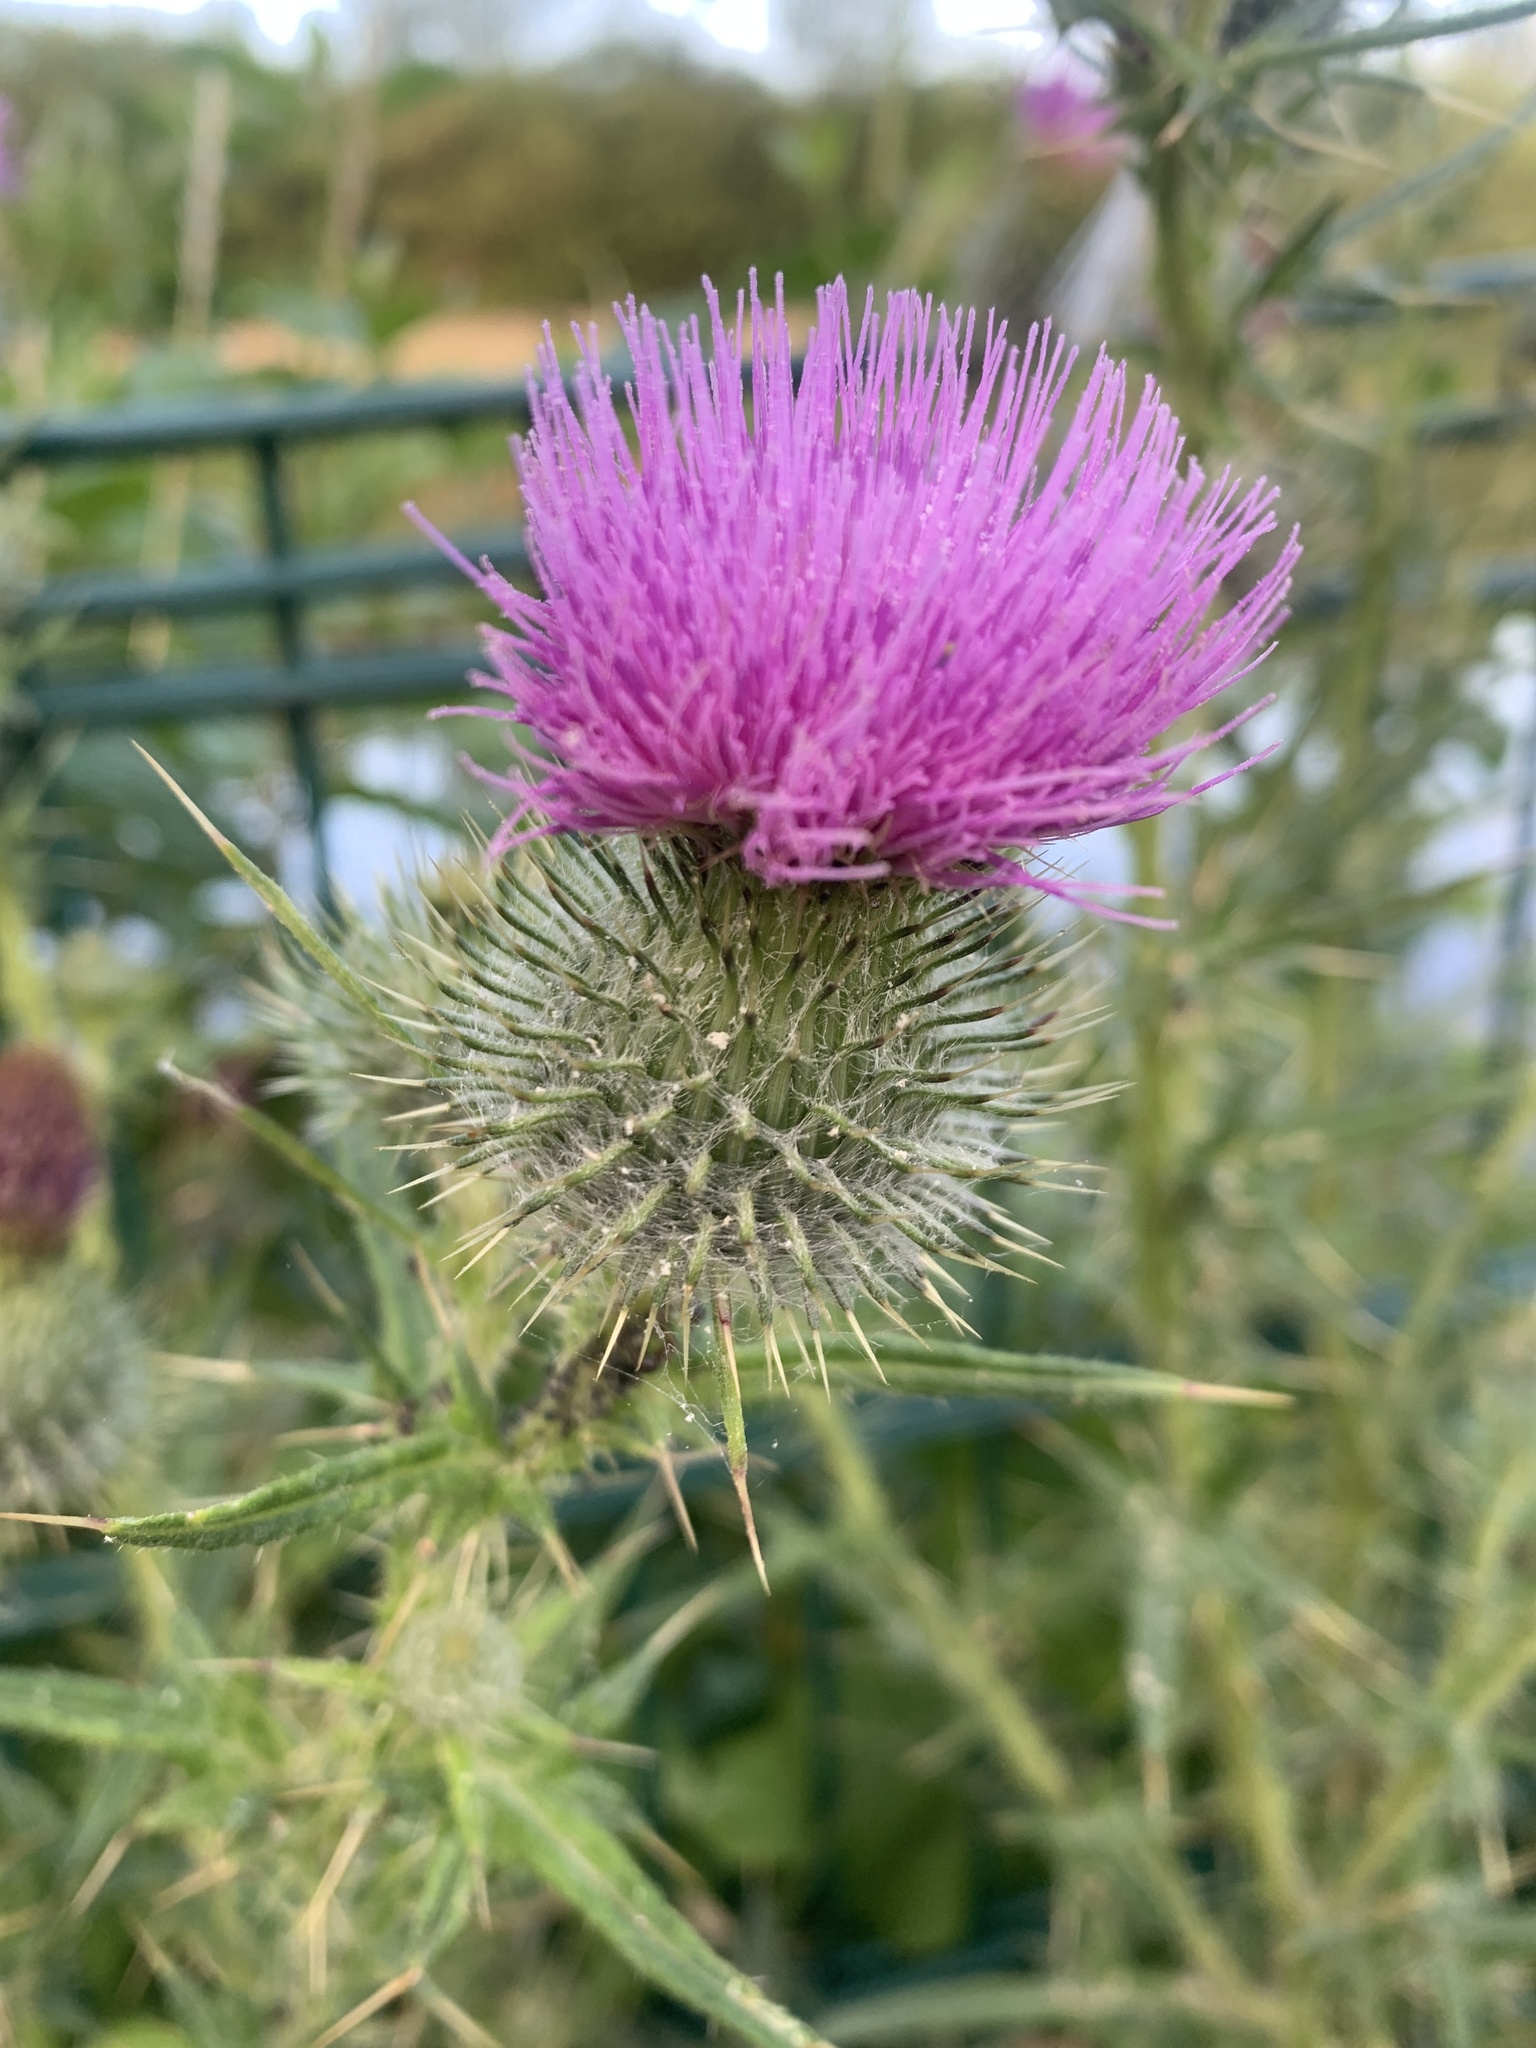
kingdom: Plantae
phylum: Tracheophyta
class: Magnoliopsida
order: Asterales
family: Asteraceae
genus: Cirsium
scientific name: Cirsium vulgare
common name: Bull thistle
